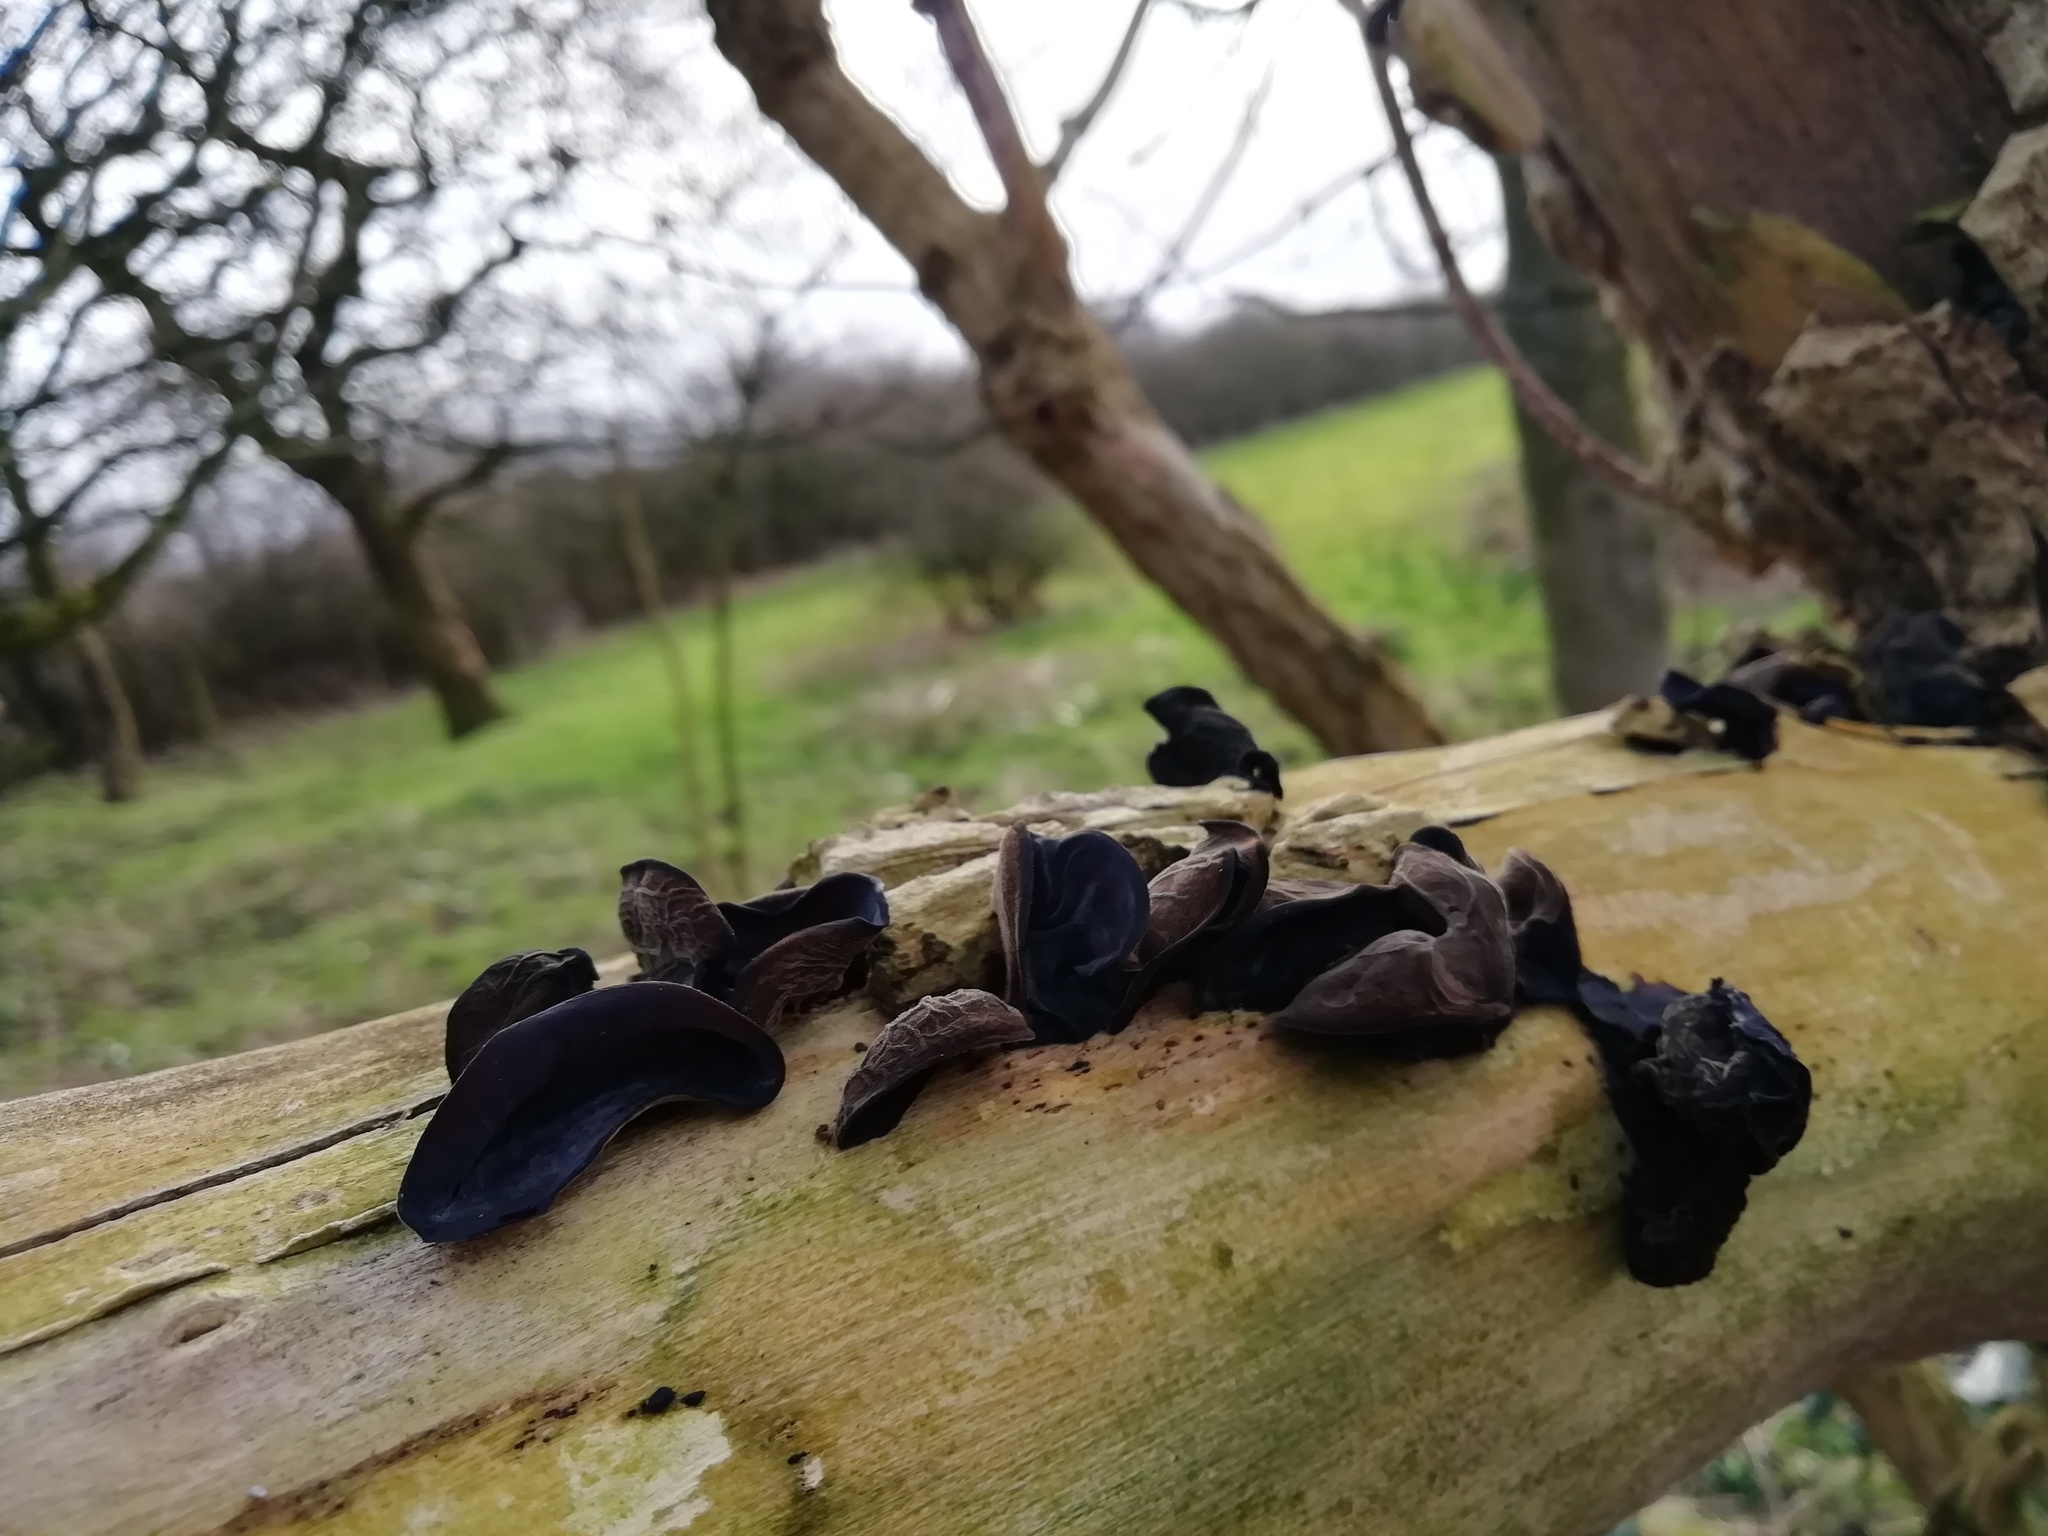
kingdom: Fungi
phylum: Basidiomycota
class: Agaricomycetes
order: Auriculariales
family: Auriculariaceae
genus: Auricularia
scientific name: Auricularia auricula-judae
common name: Jelly ear
